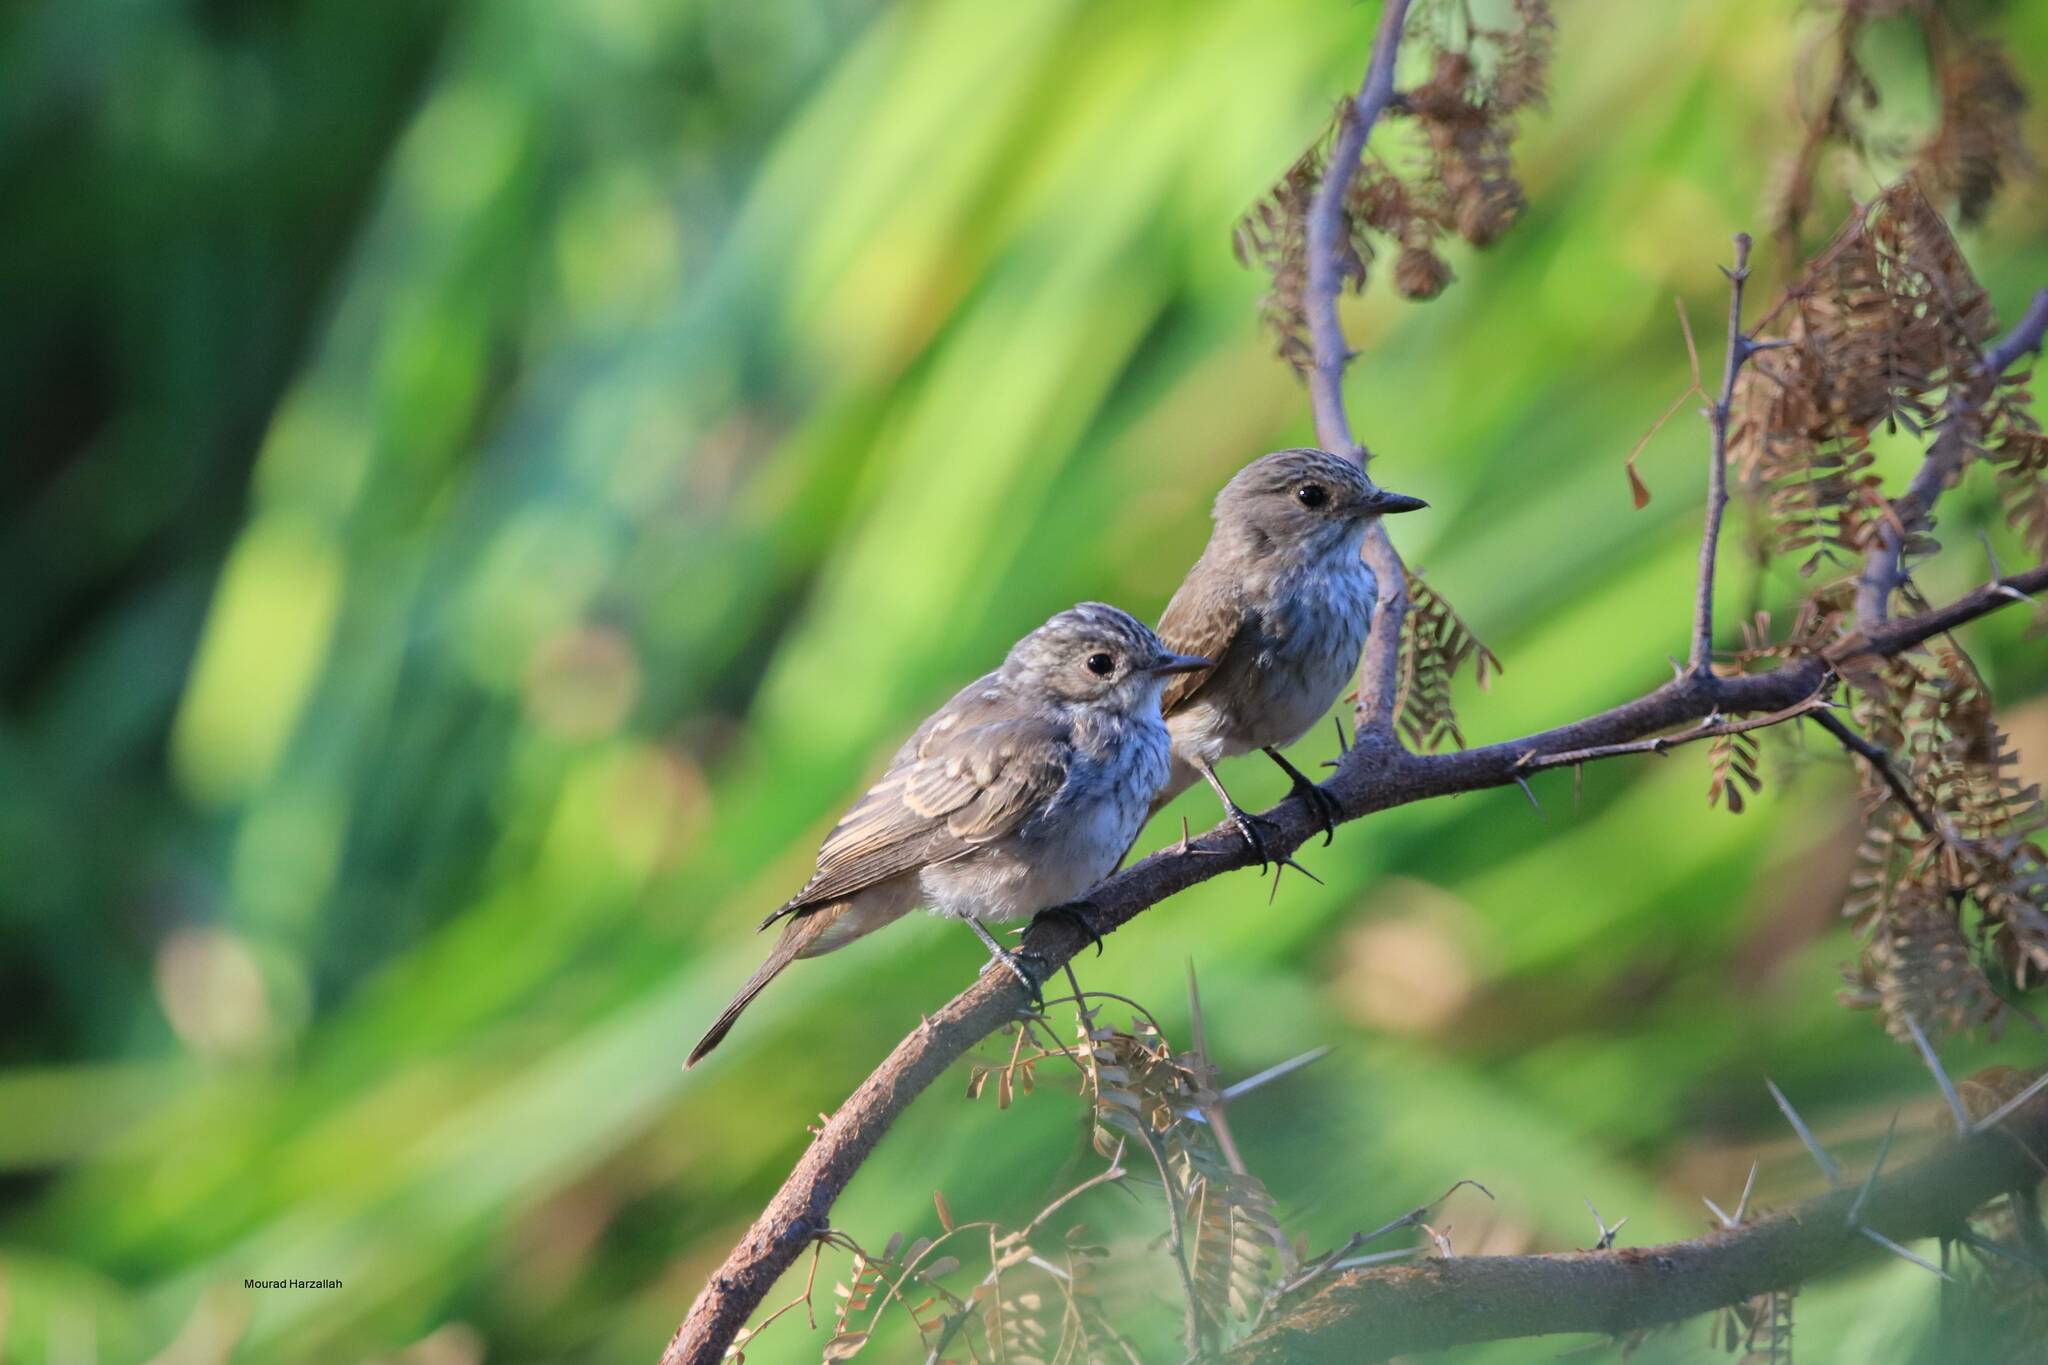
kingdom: Animalia
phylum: Chordata
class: Aves
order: Passeriformes
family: Muscicapidae
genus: Muscicapa
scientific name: Muscicapa striata
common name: Spotted flycatcher
